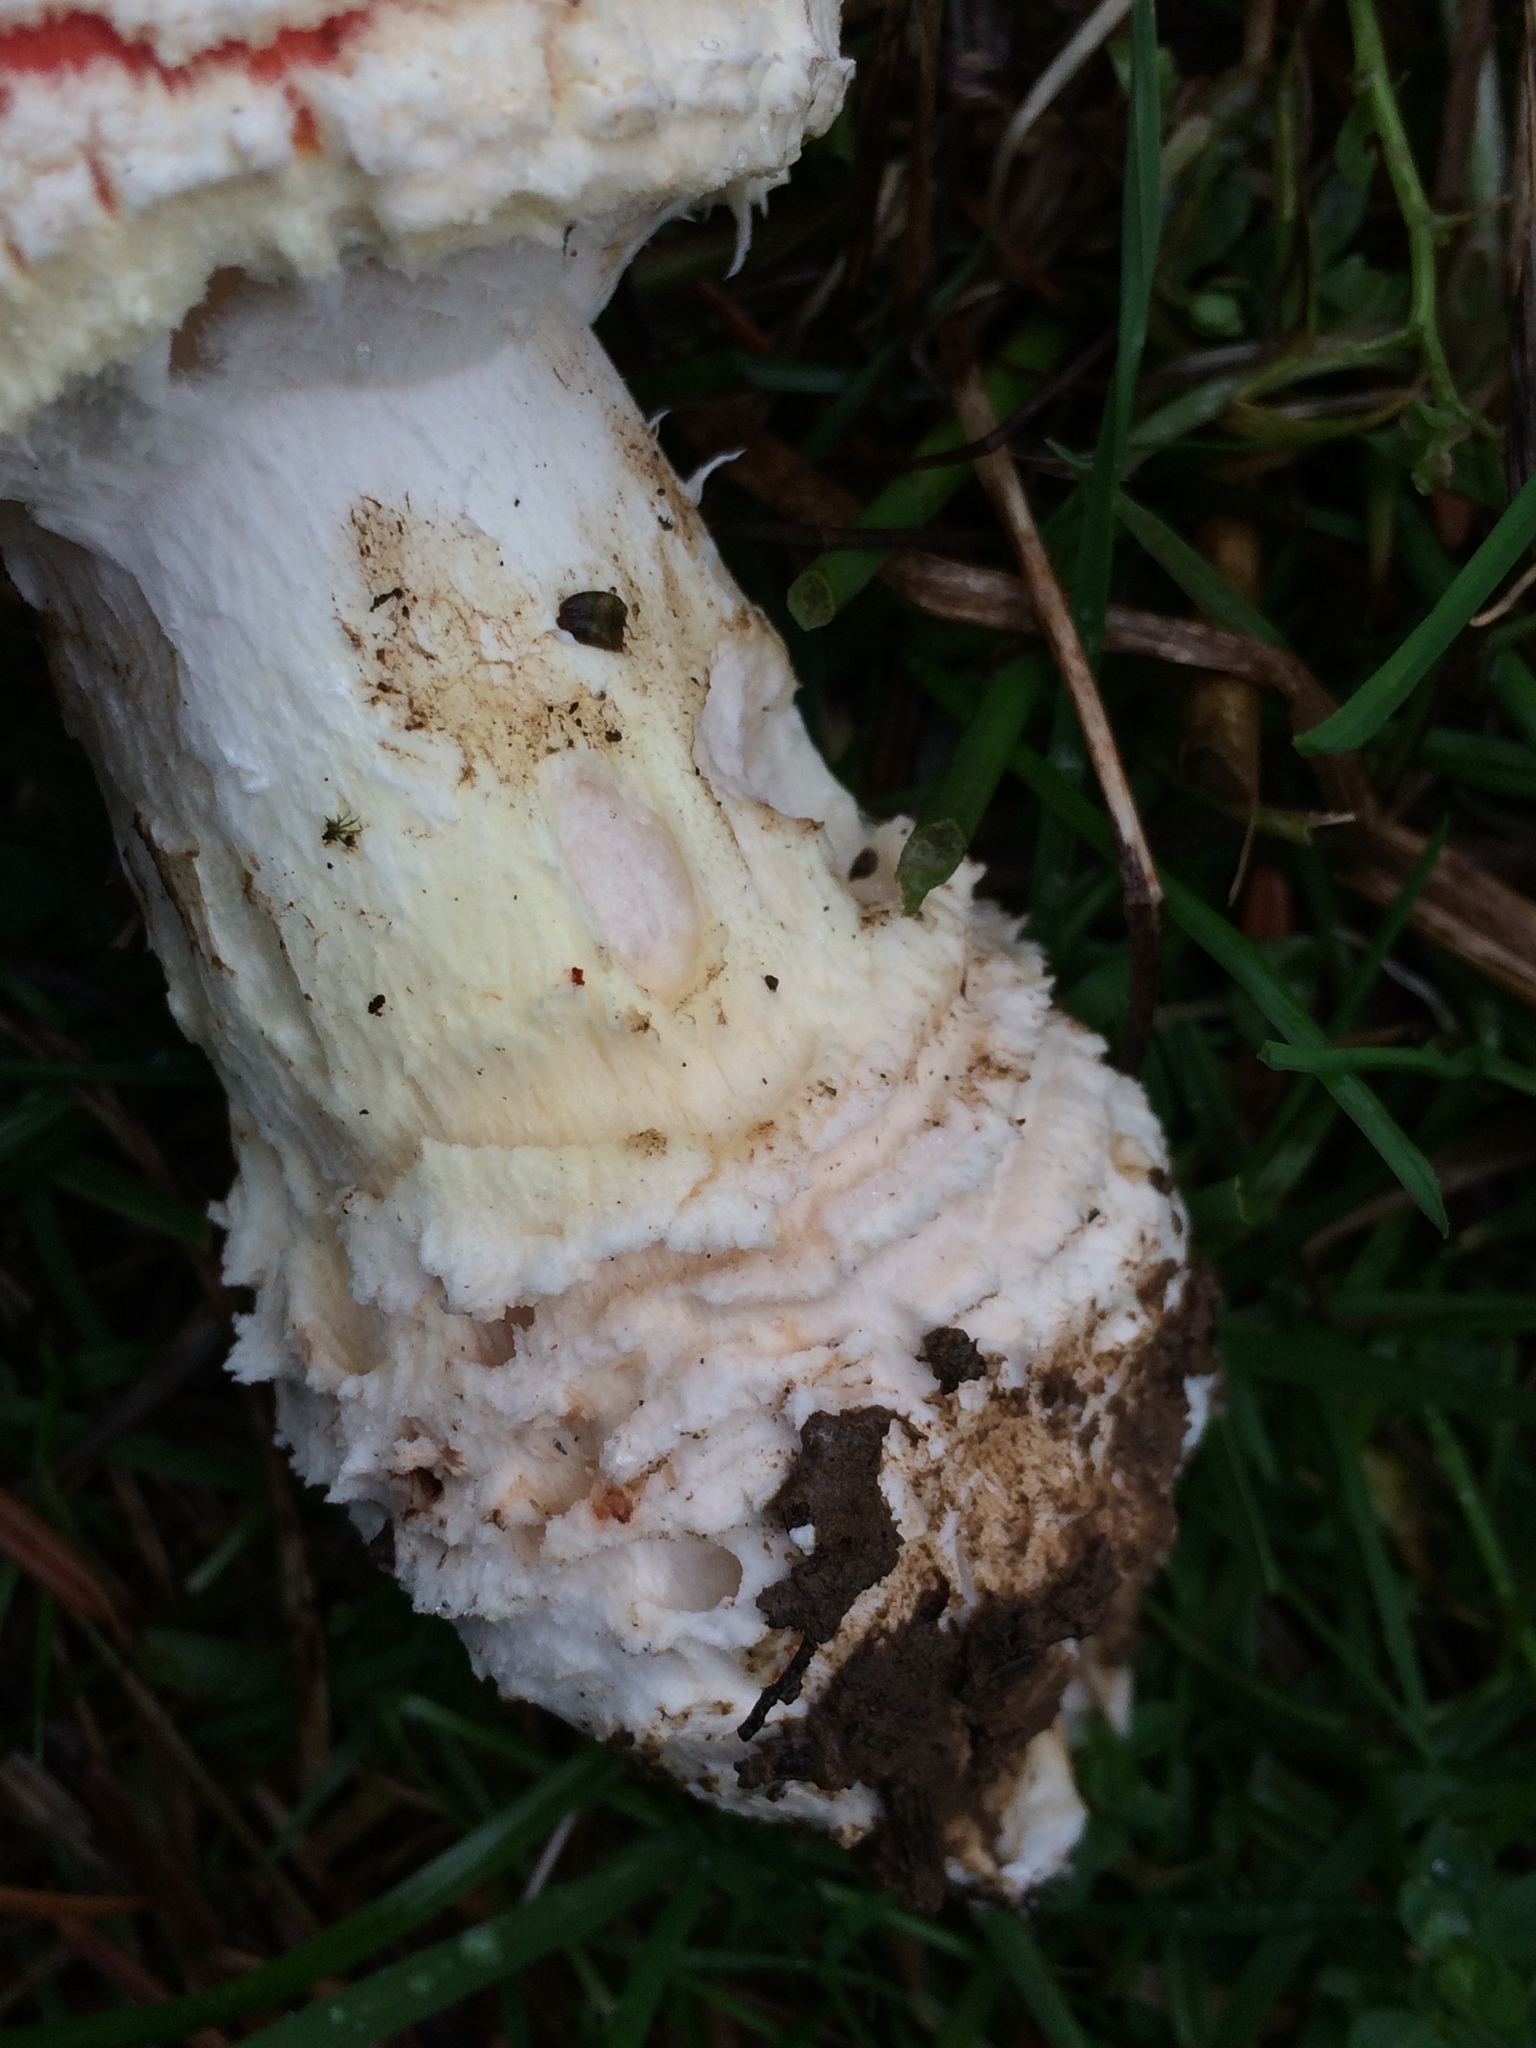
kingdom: Fungi
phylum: Basidiomycota
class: Agaricomycetes
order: Agaricales
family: Amanitaceae
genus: Amanita
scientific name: Amanita muscaria
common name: Fly agaric
